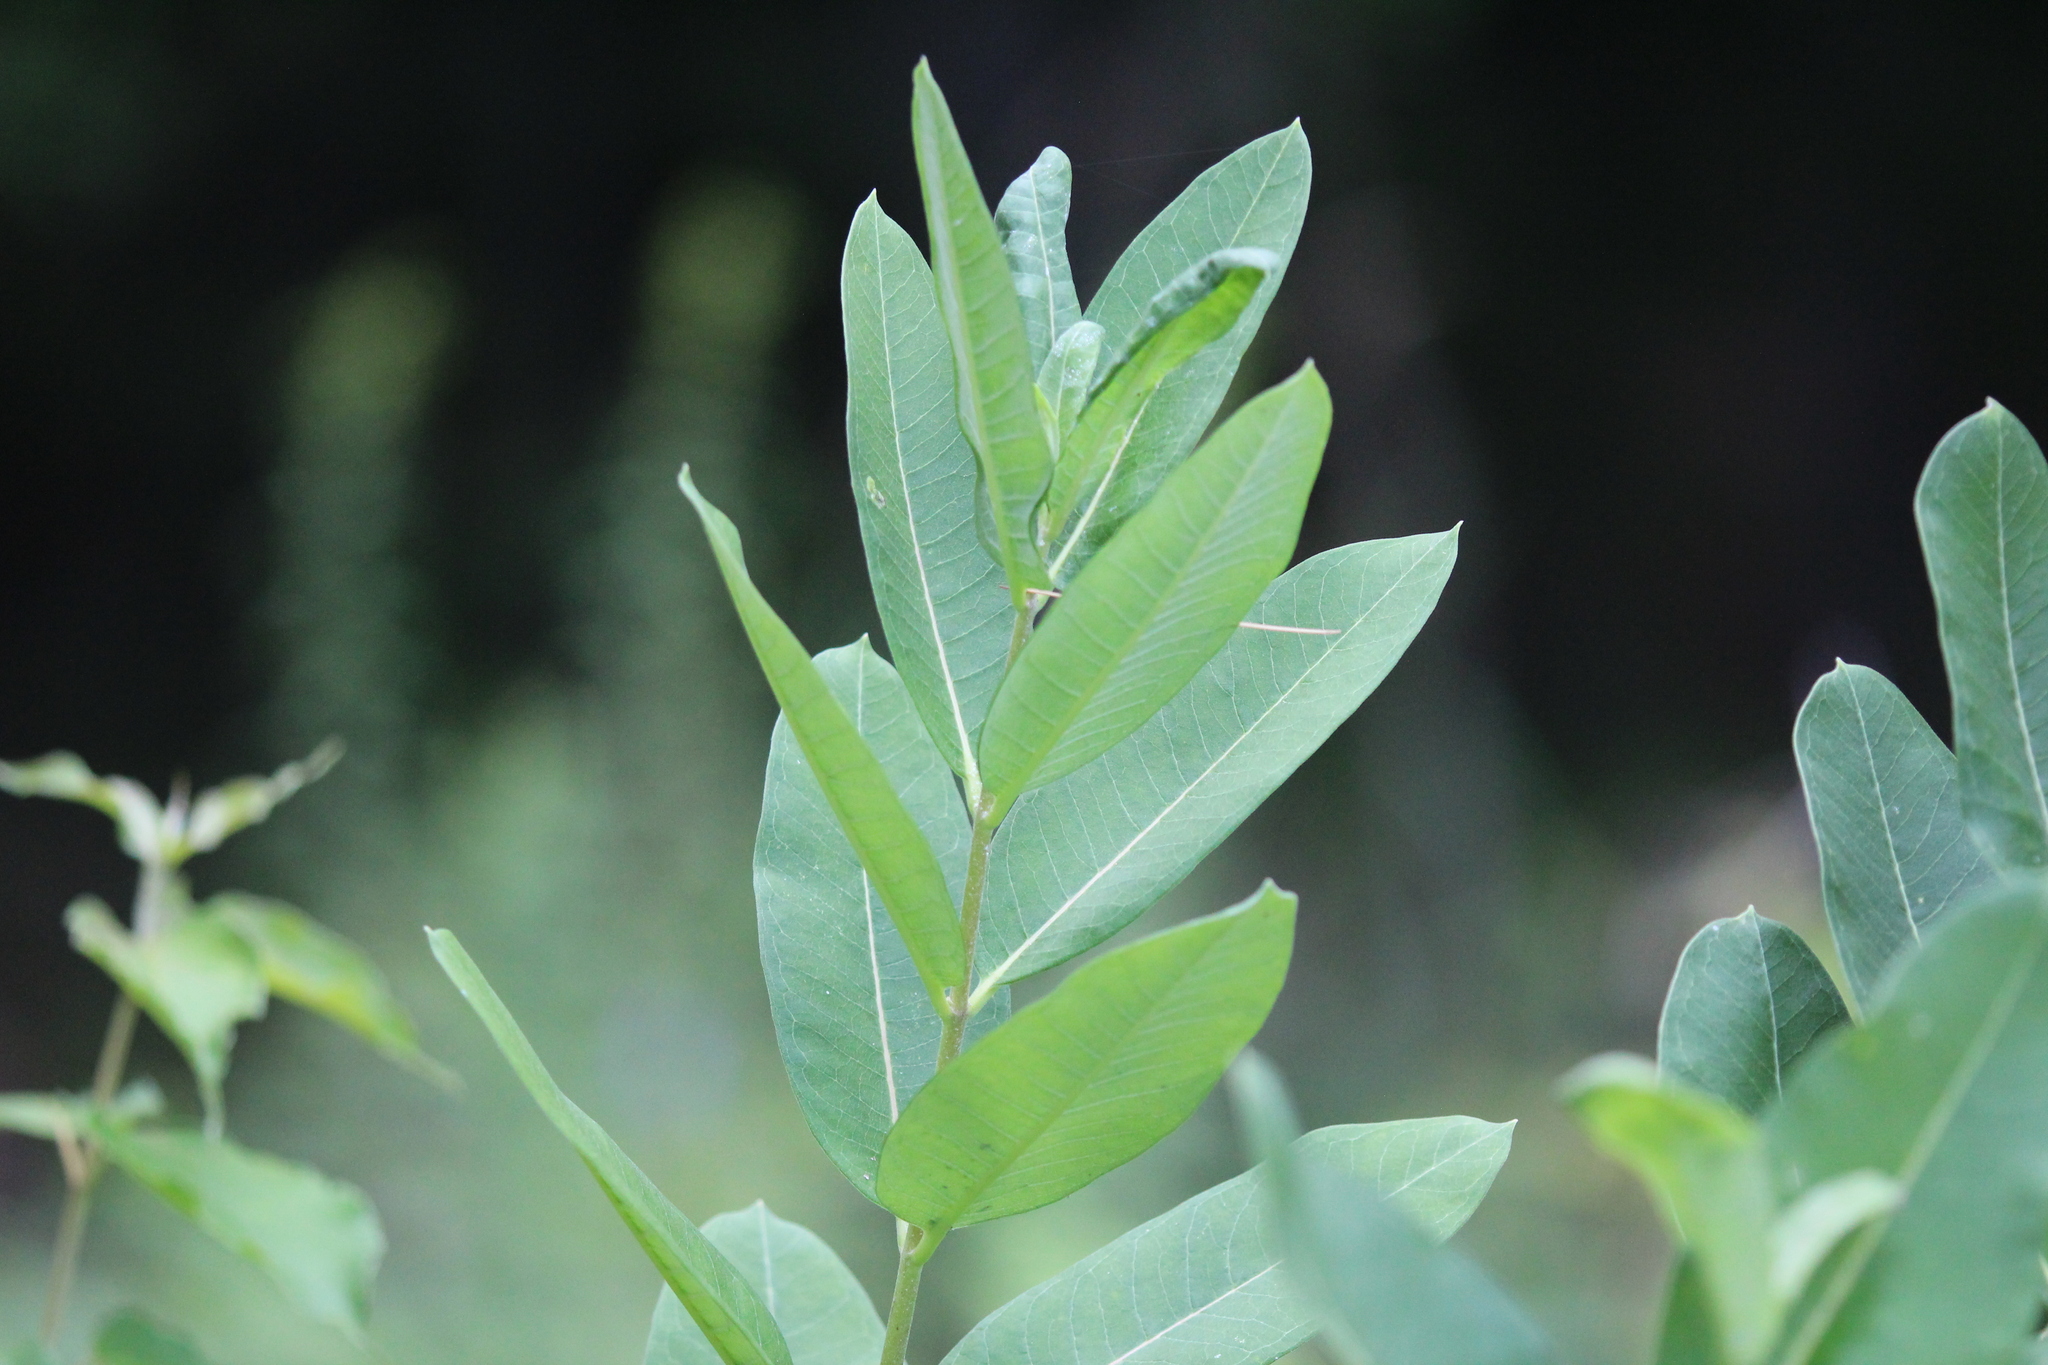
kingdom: Plantae
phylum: Tracheophyta
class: Magnoliopsida
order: Gentianales
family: Apocynaceae
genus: Asclepias
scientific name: Asclepias syriaca
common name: Common milkweed
